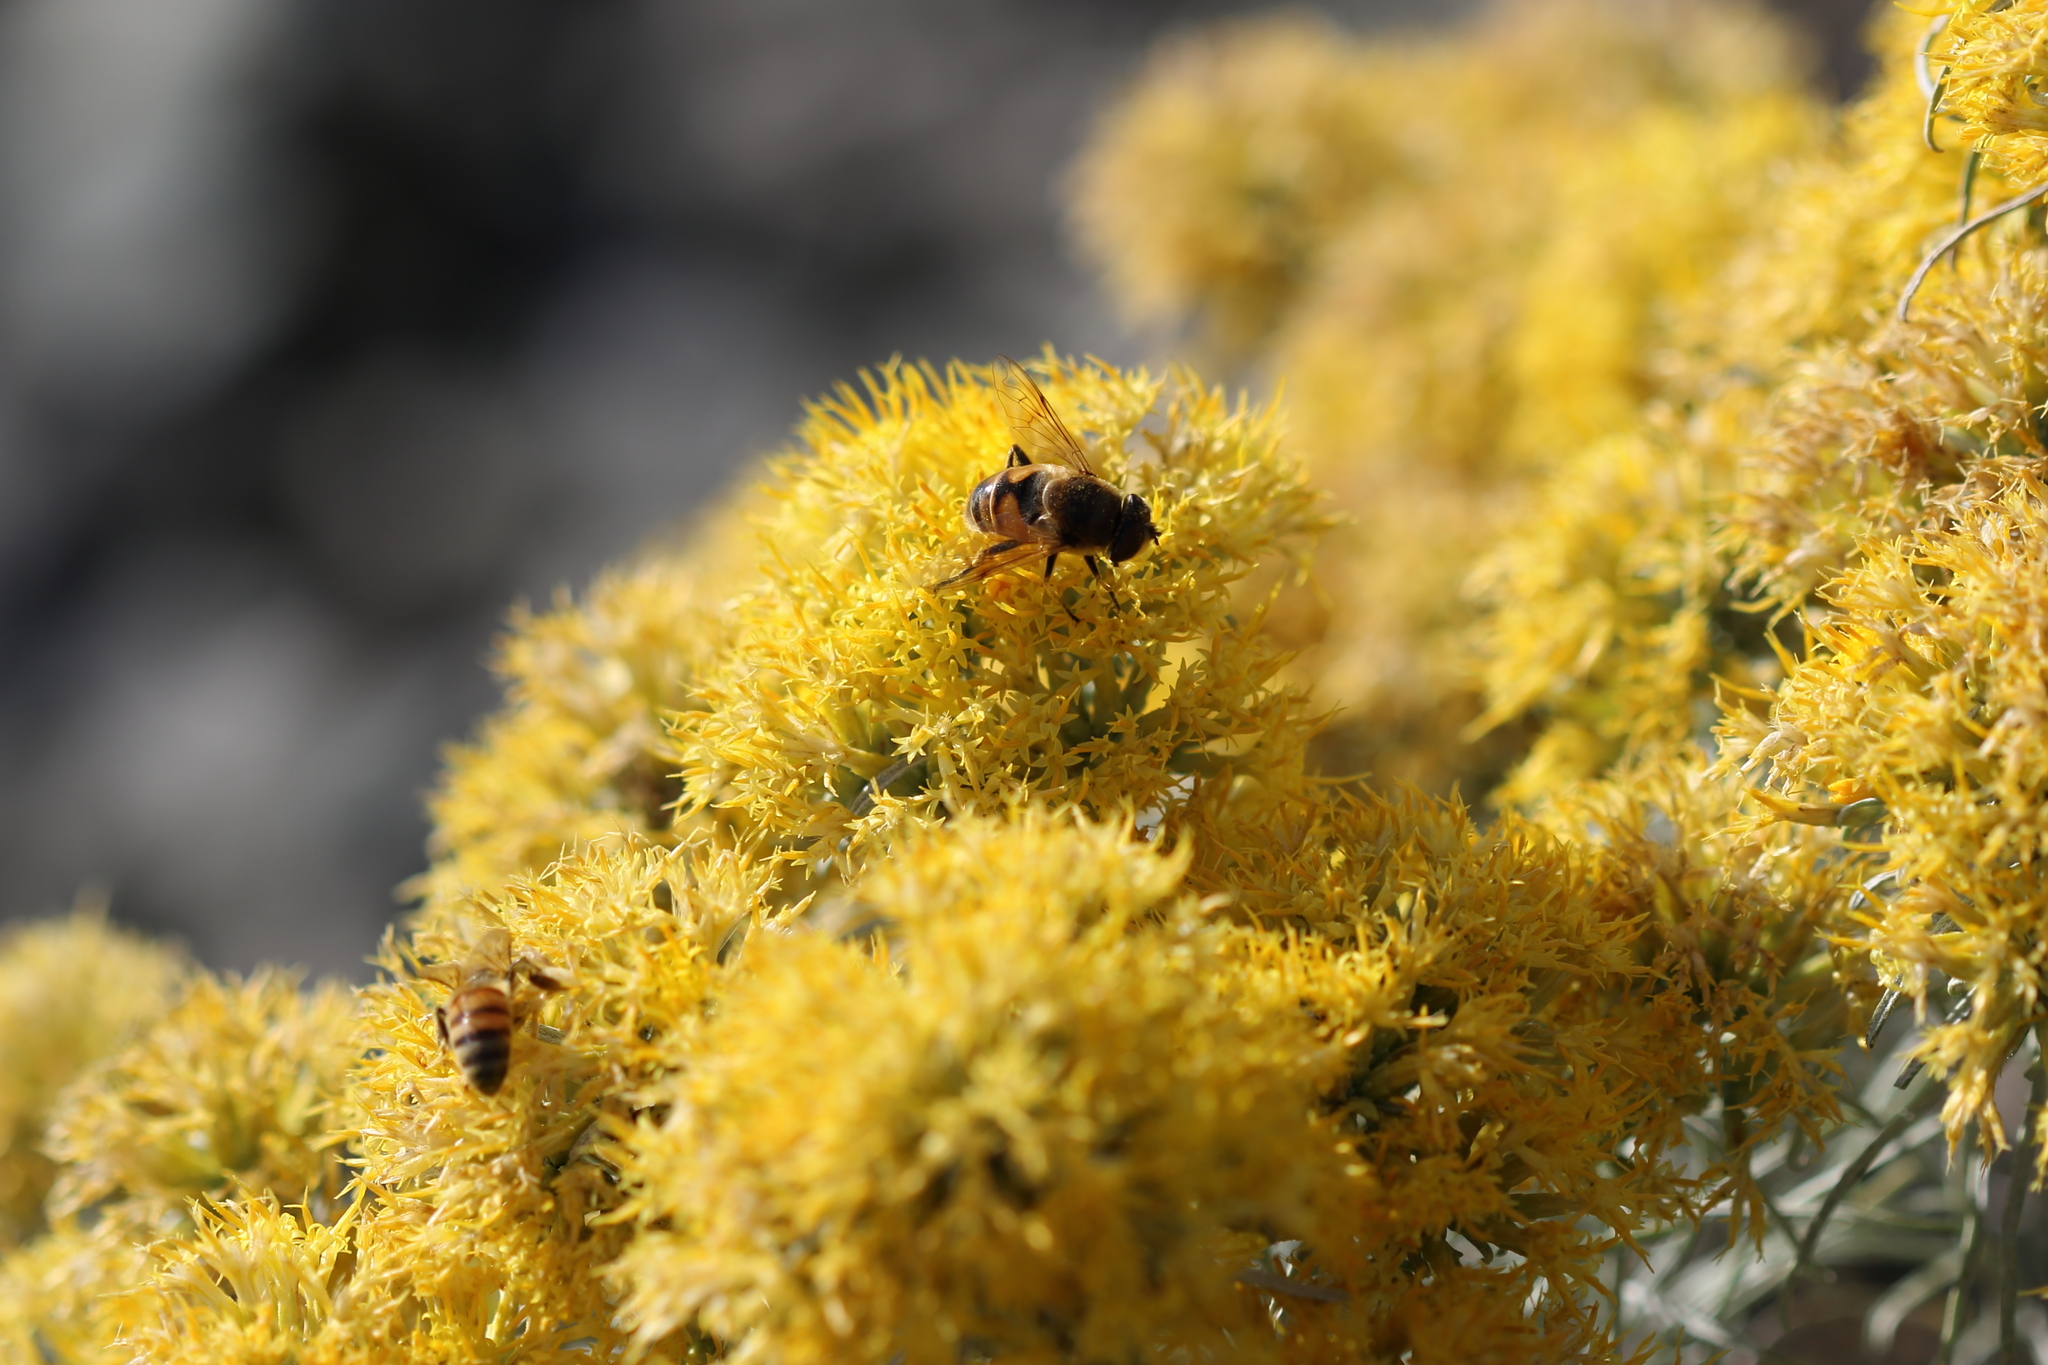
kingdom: Animalia
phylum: Arthropoda
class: Insecta
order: Diptera
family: Syrphidae
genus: Eristalis
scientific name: Eristalis tenax
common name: Drone fly
